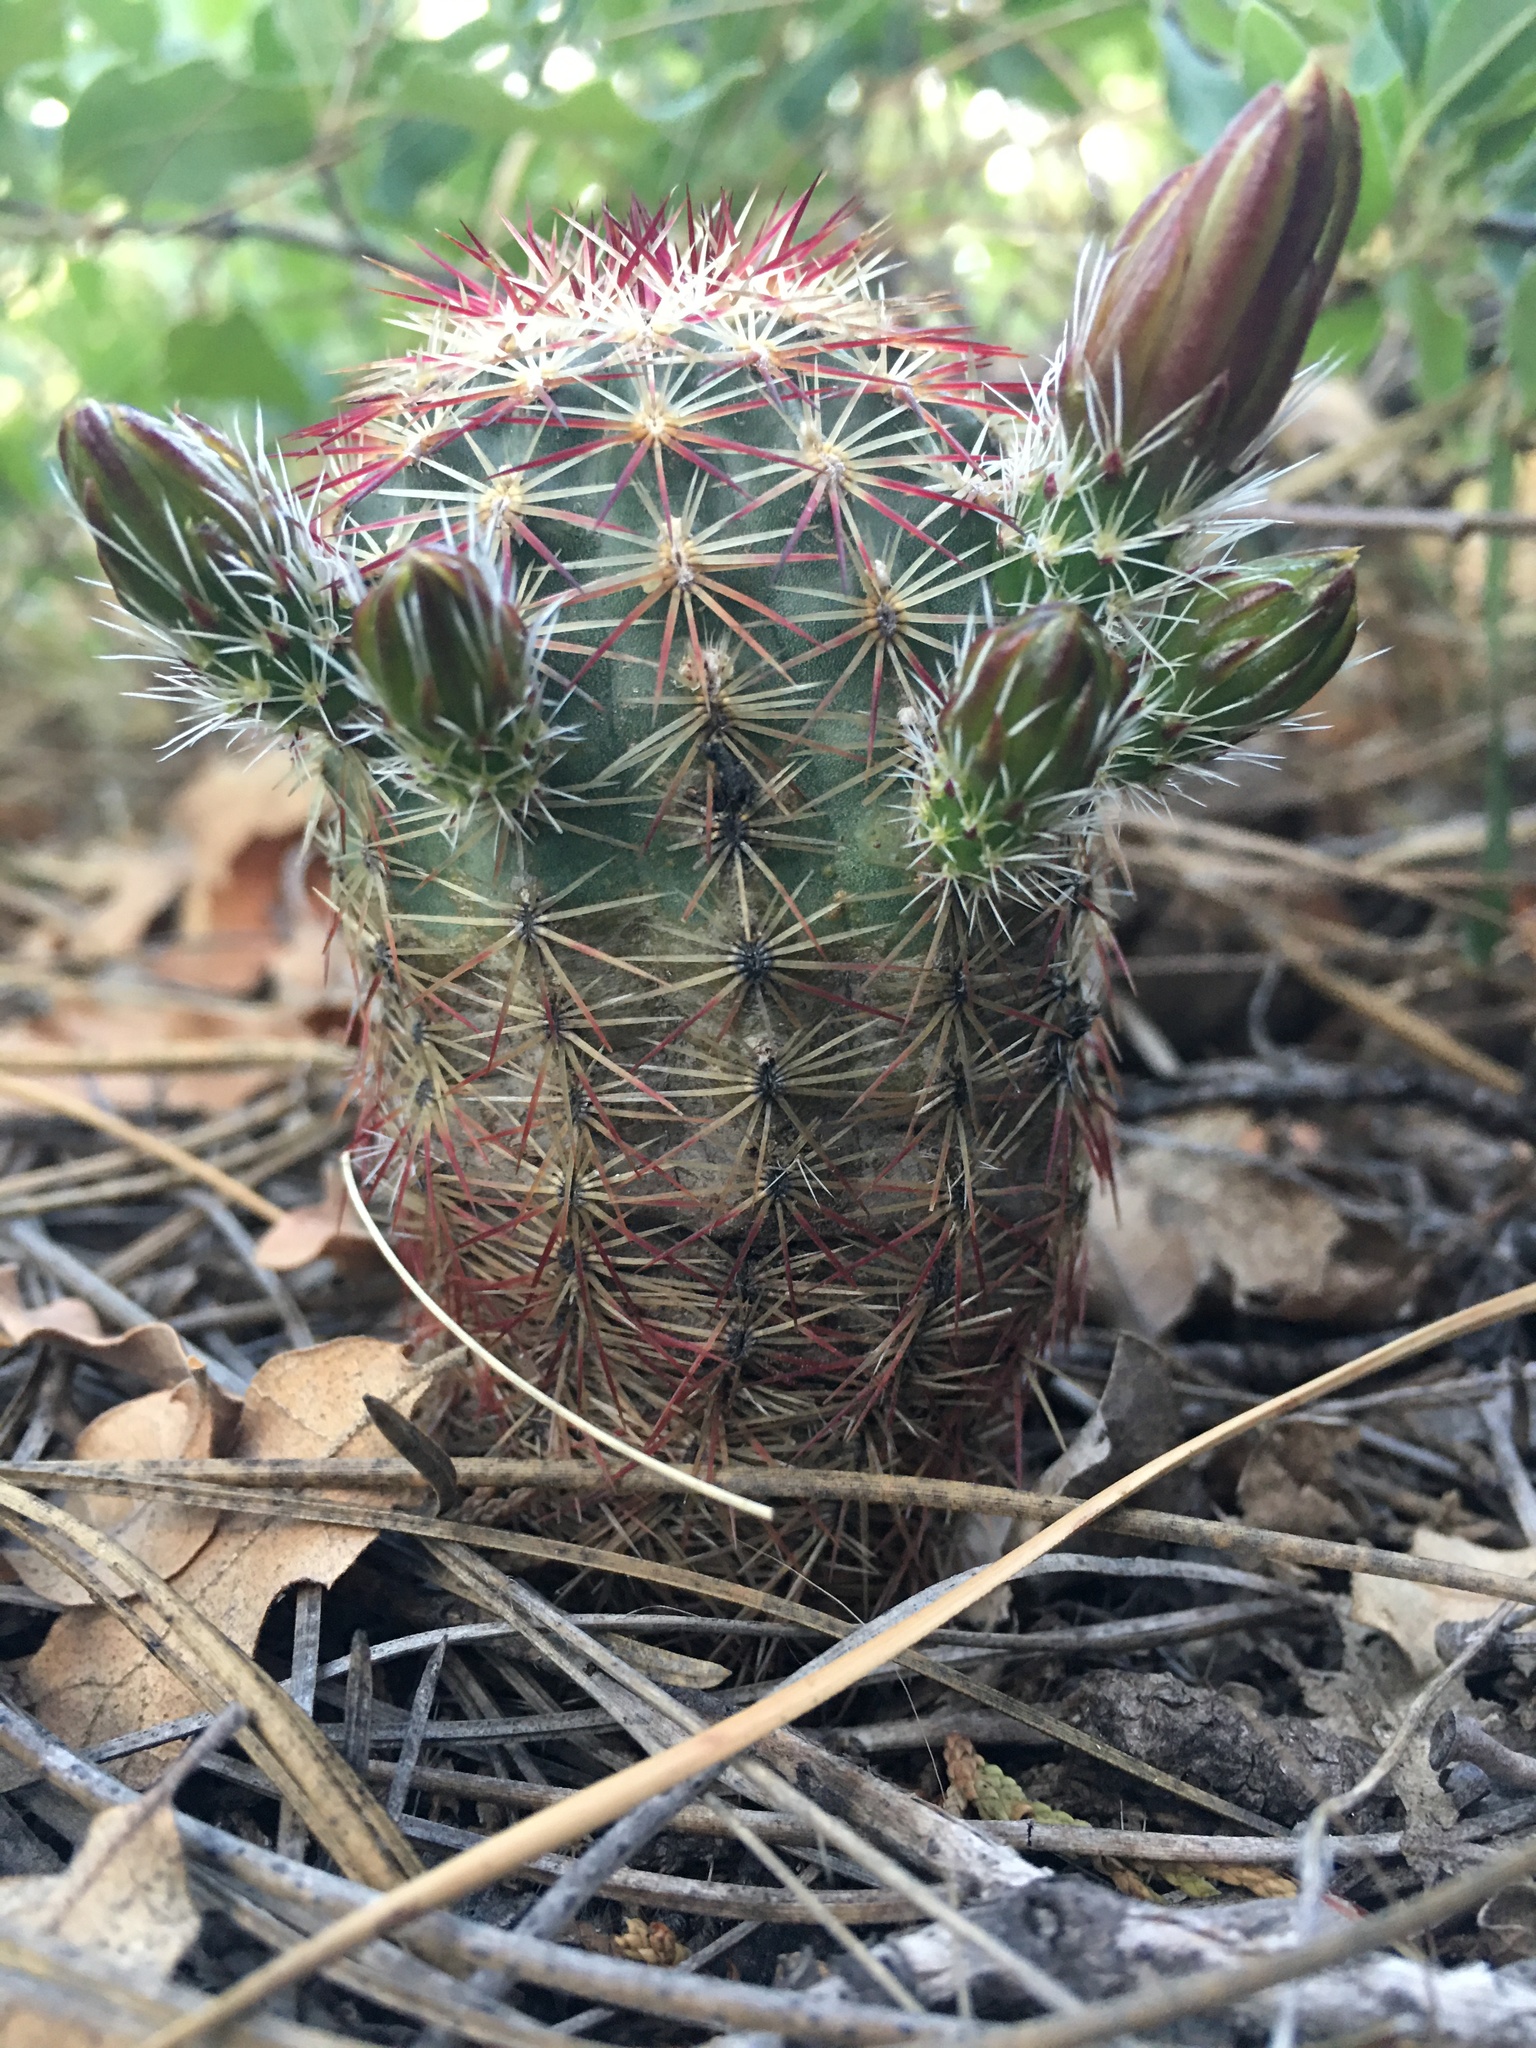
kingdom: Plantae
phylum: Tracheophyta
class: Magnoliopsida
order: Caryophyllales
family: Cactaceae
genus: Echinocereus
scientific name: Echinocereus viridiflorus
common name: Nylon hedgehog cactus
